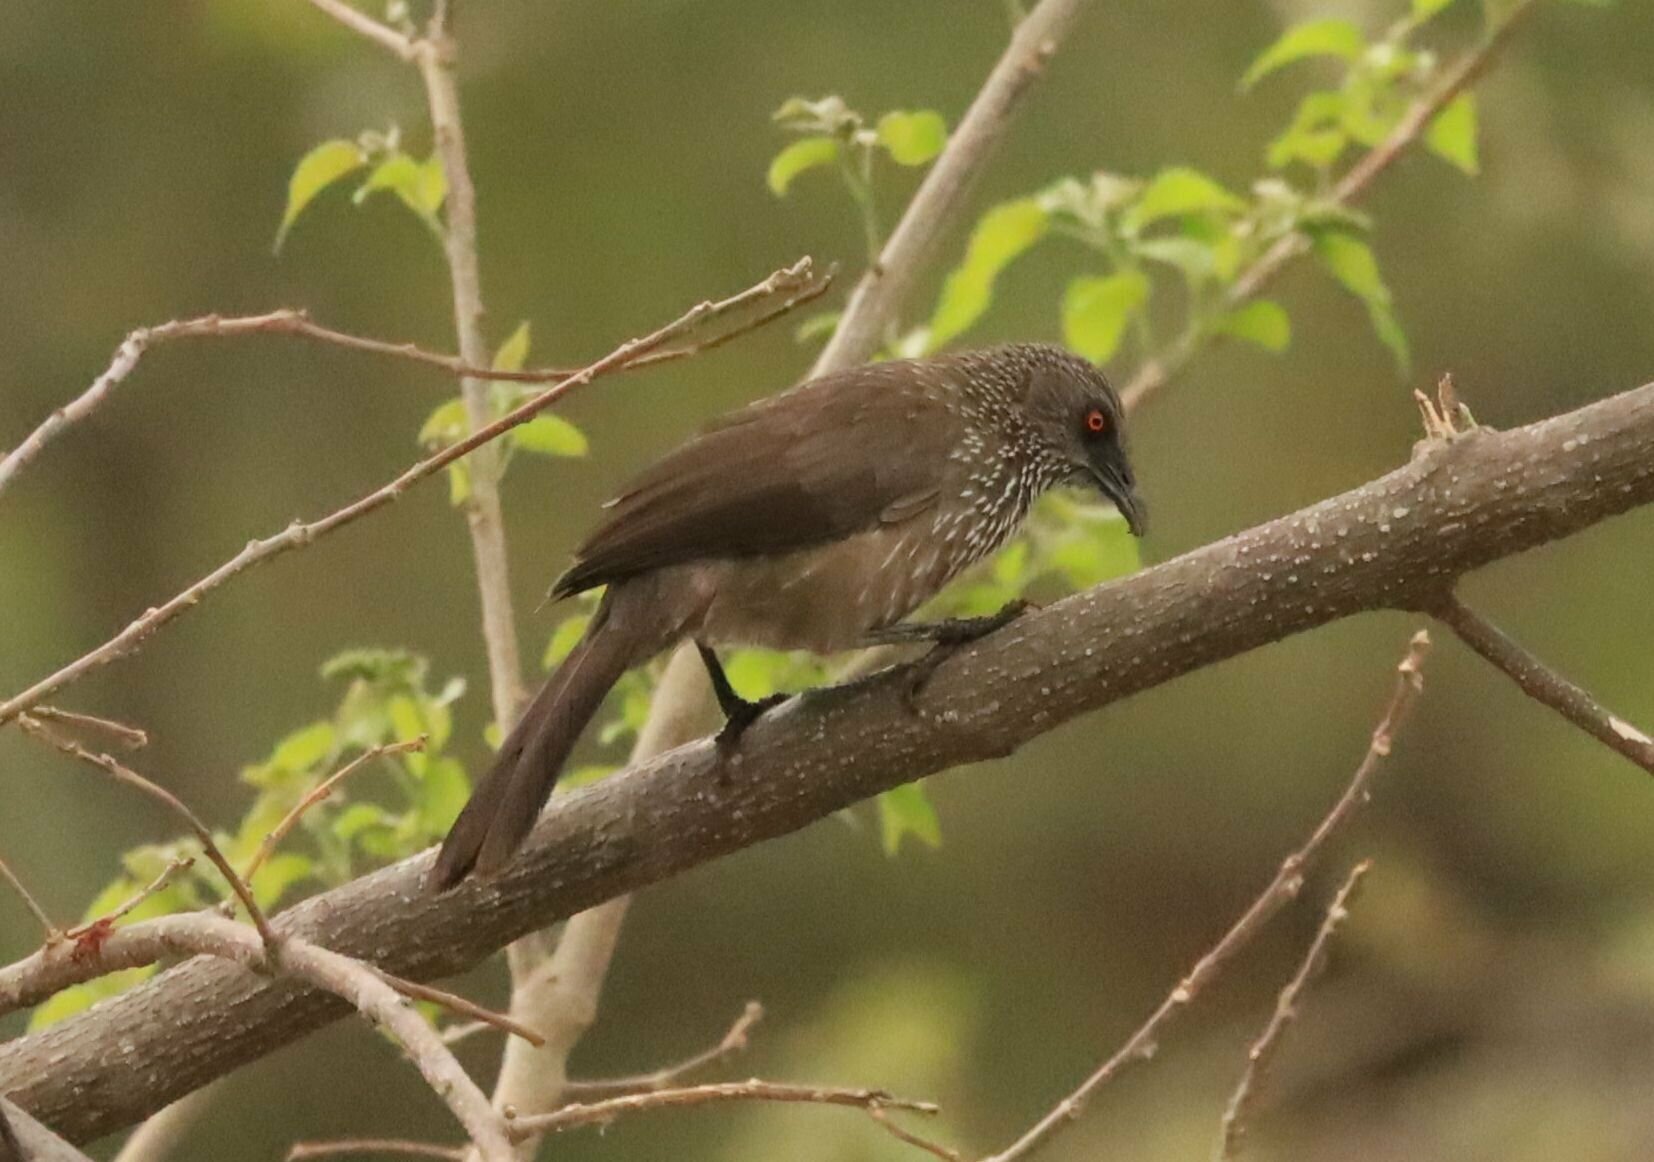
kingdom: Animalia
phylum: Chordata
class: Aves
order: Passeriformes
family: Leiothrichidae
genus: Turdoides
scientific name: Turdoides jardineii
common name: Arrow-marked babbler
